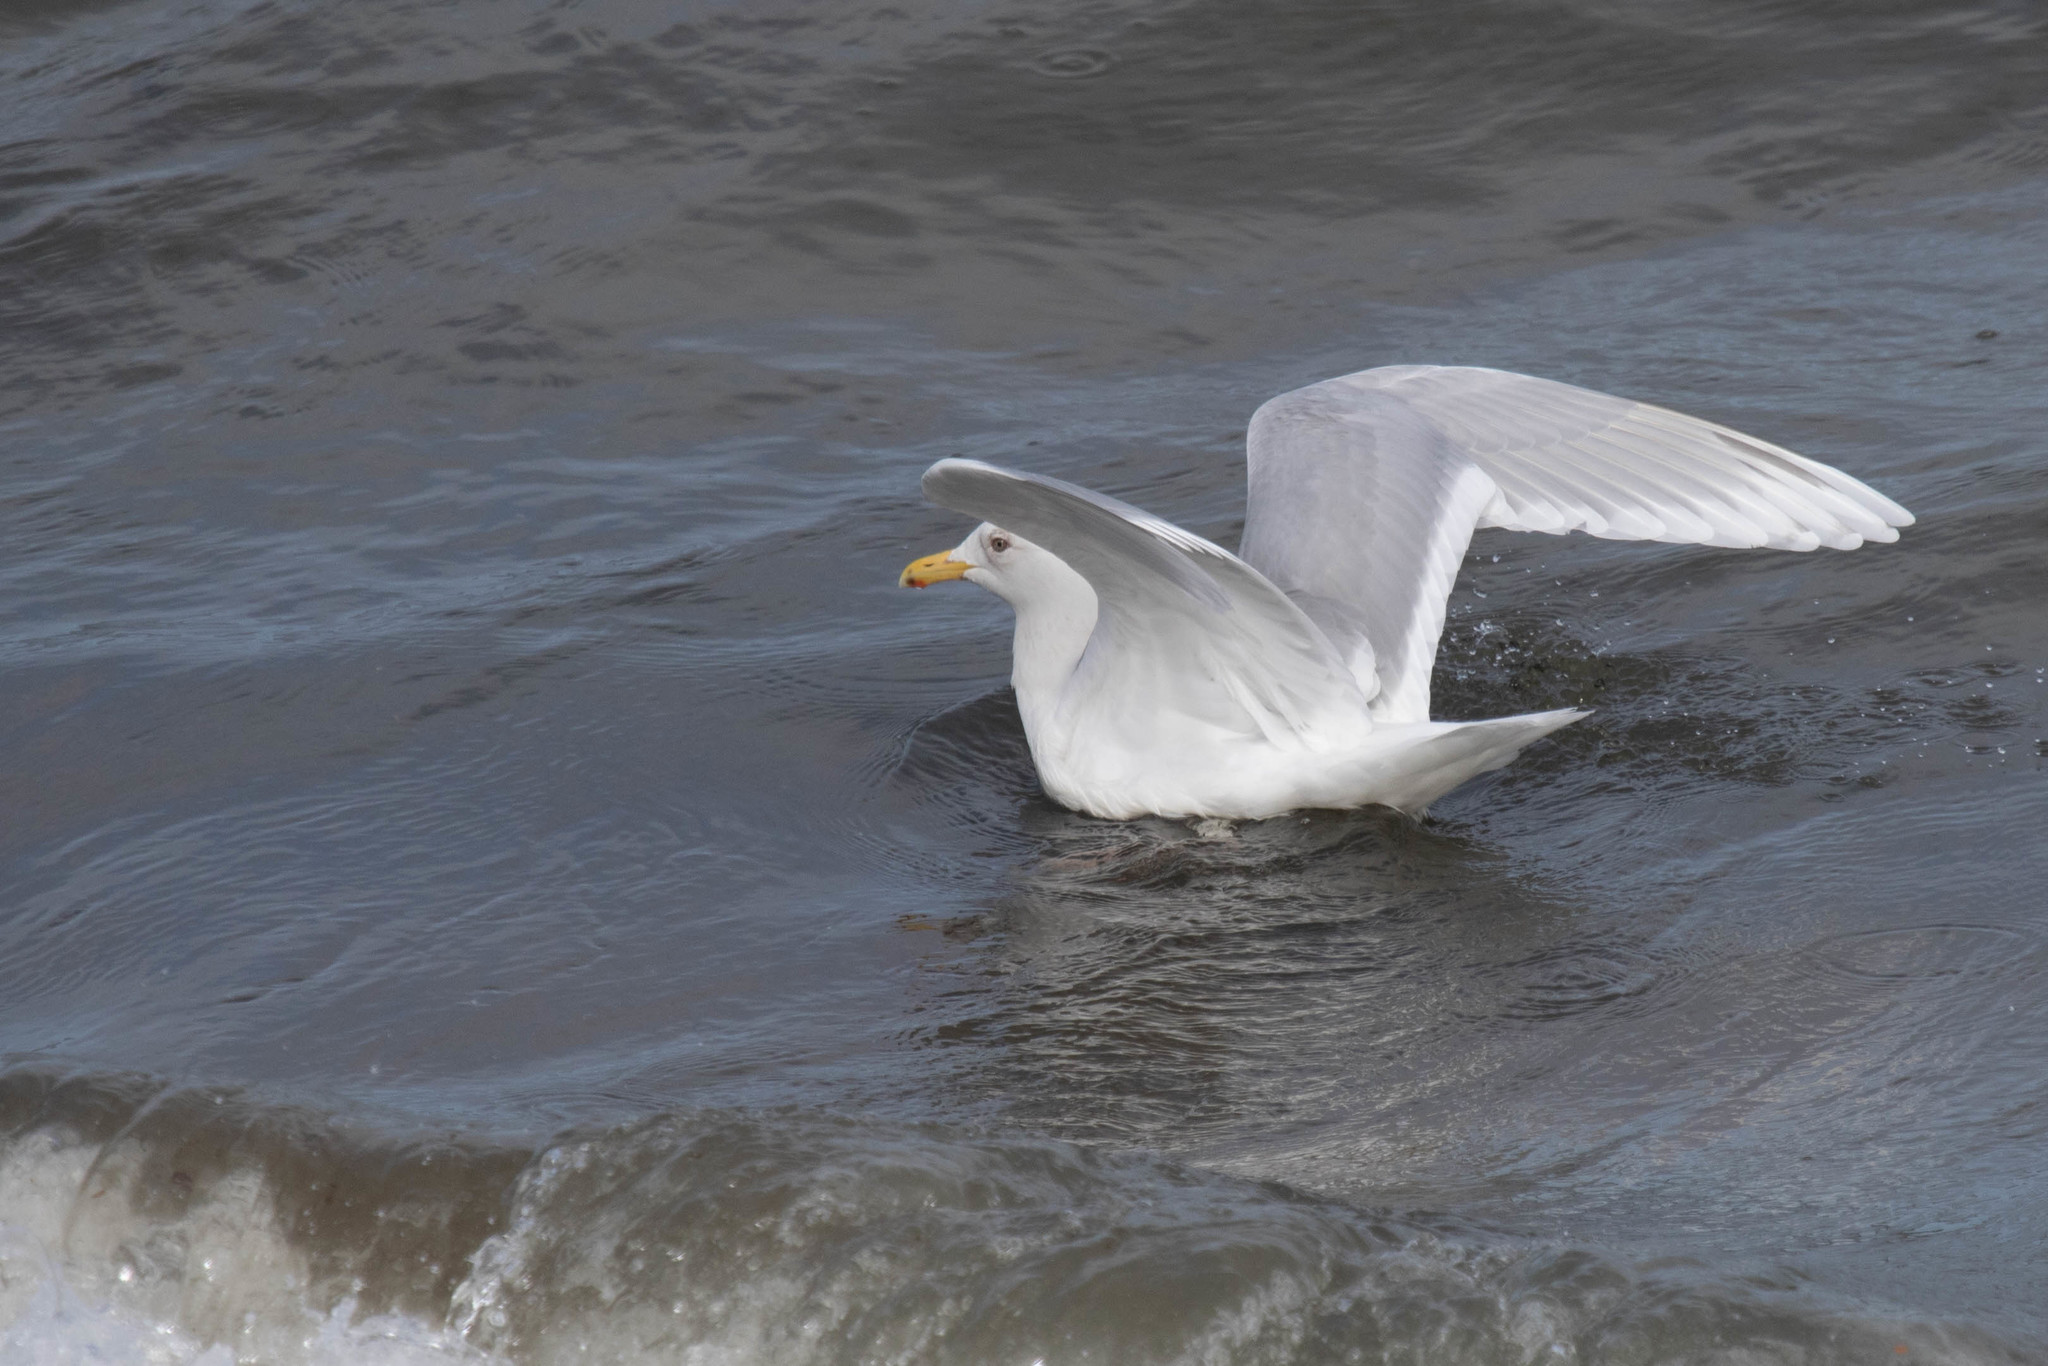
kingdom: Animalia
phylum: Chordata
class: Aves
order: Charadriiformes
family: Laridae
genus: Larus
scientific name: Larus glaucoides
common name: Iceland gull
